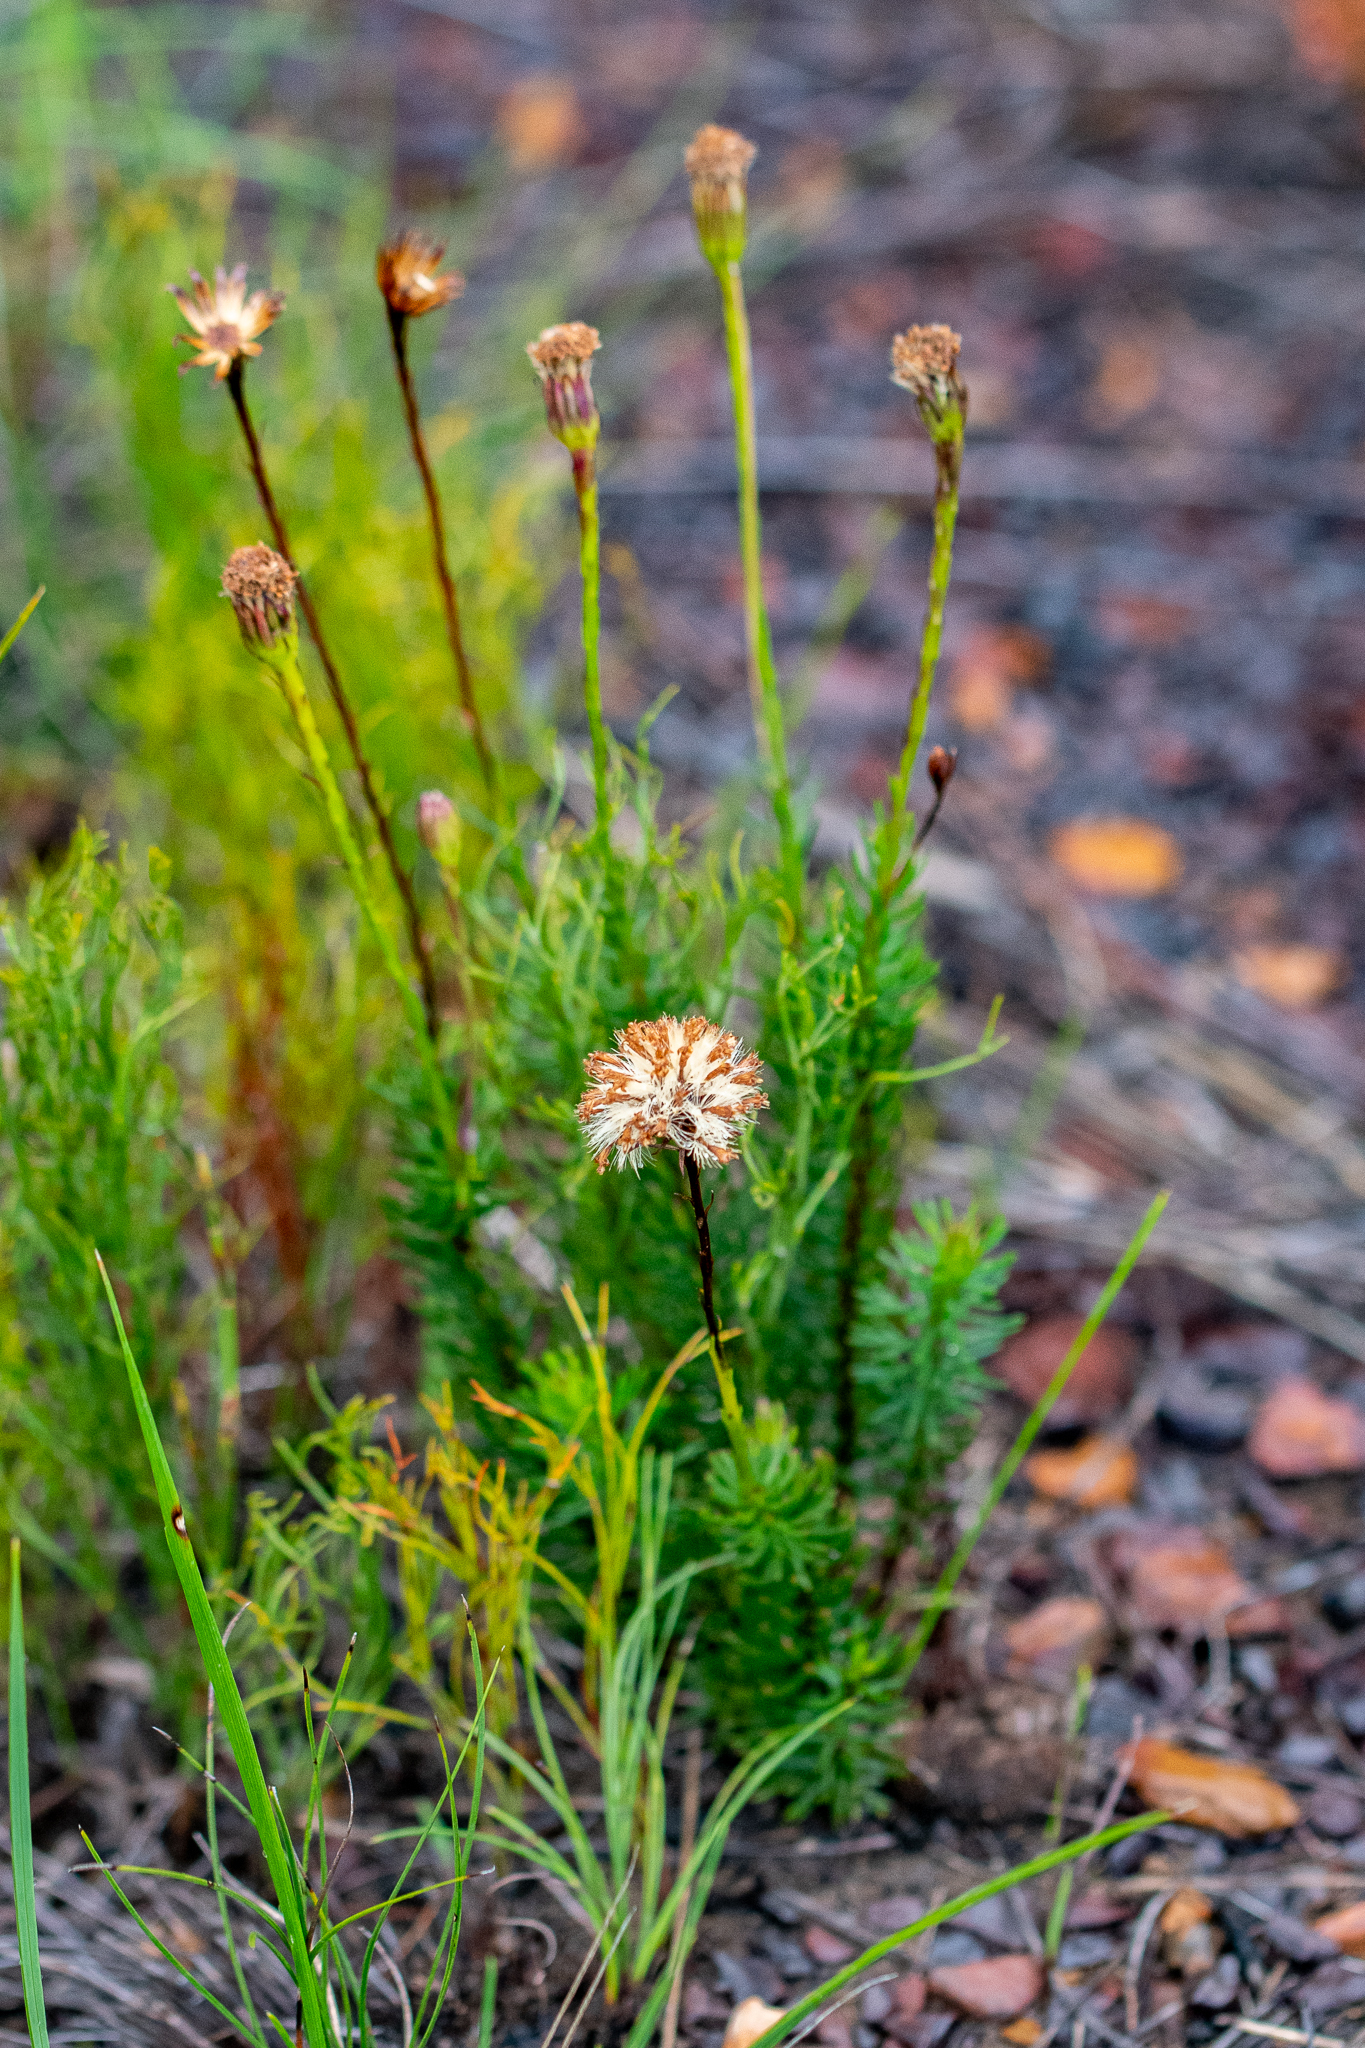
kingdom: Plantae
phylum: Tracheophyta
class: Magnoliopsida
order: Asterales
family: Asteraceae
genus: Senecio
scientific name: Senecio triqueter
